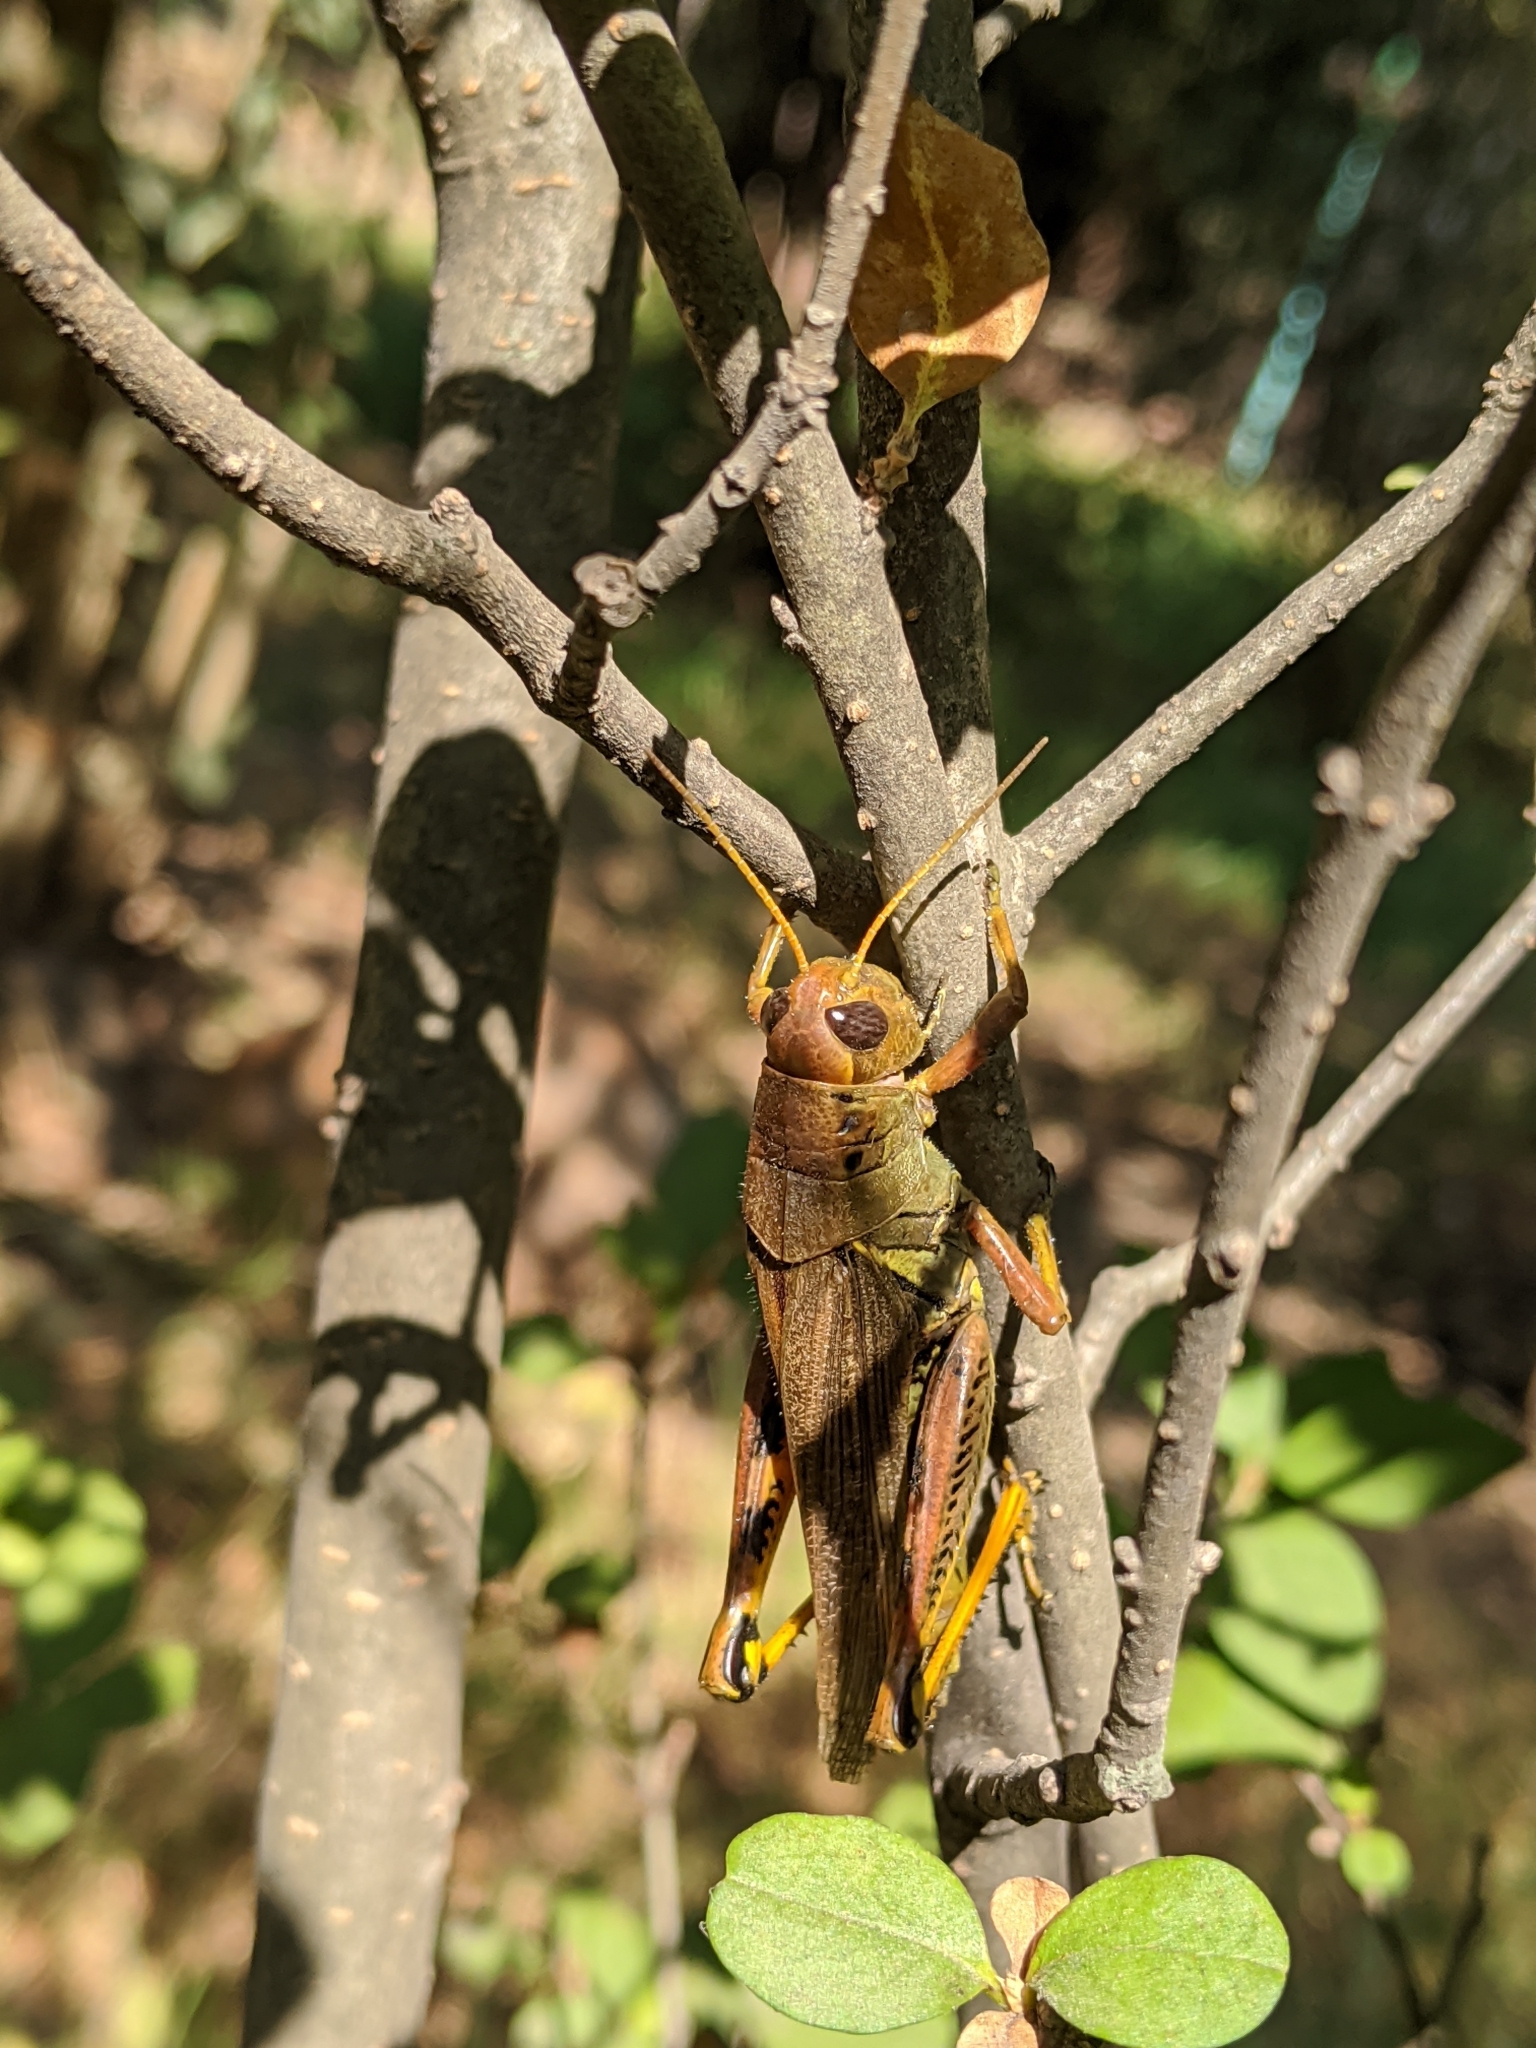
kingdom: Animalia
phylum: Arthropoda
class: Insecta
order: Orthoptera
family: Acrididae
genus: Melanoplus
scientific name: Melanoplus differentialis
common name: Differential grasshopper
